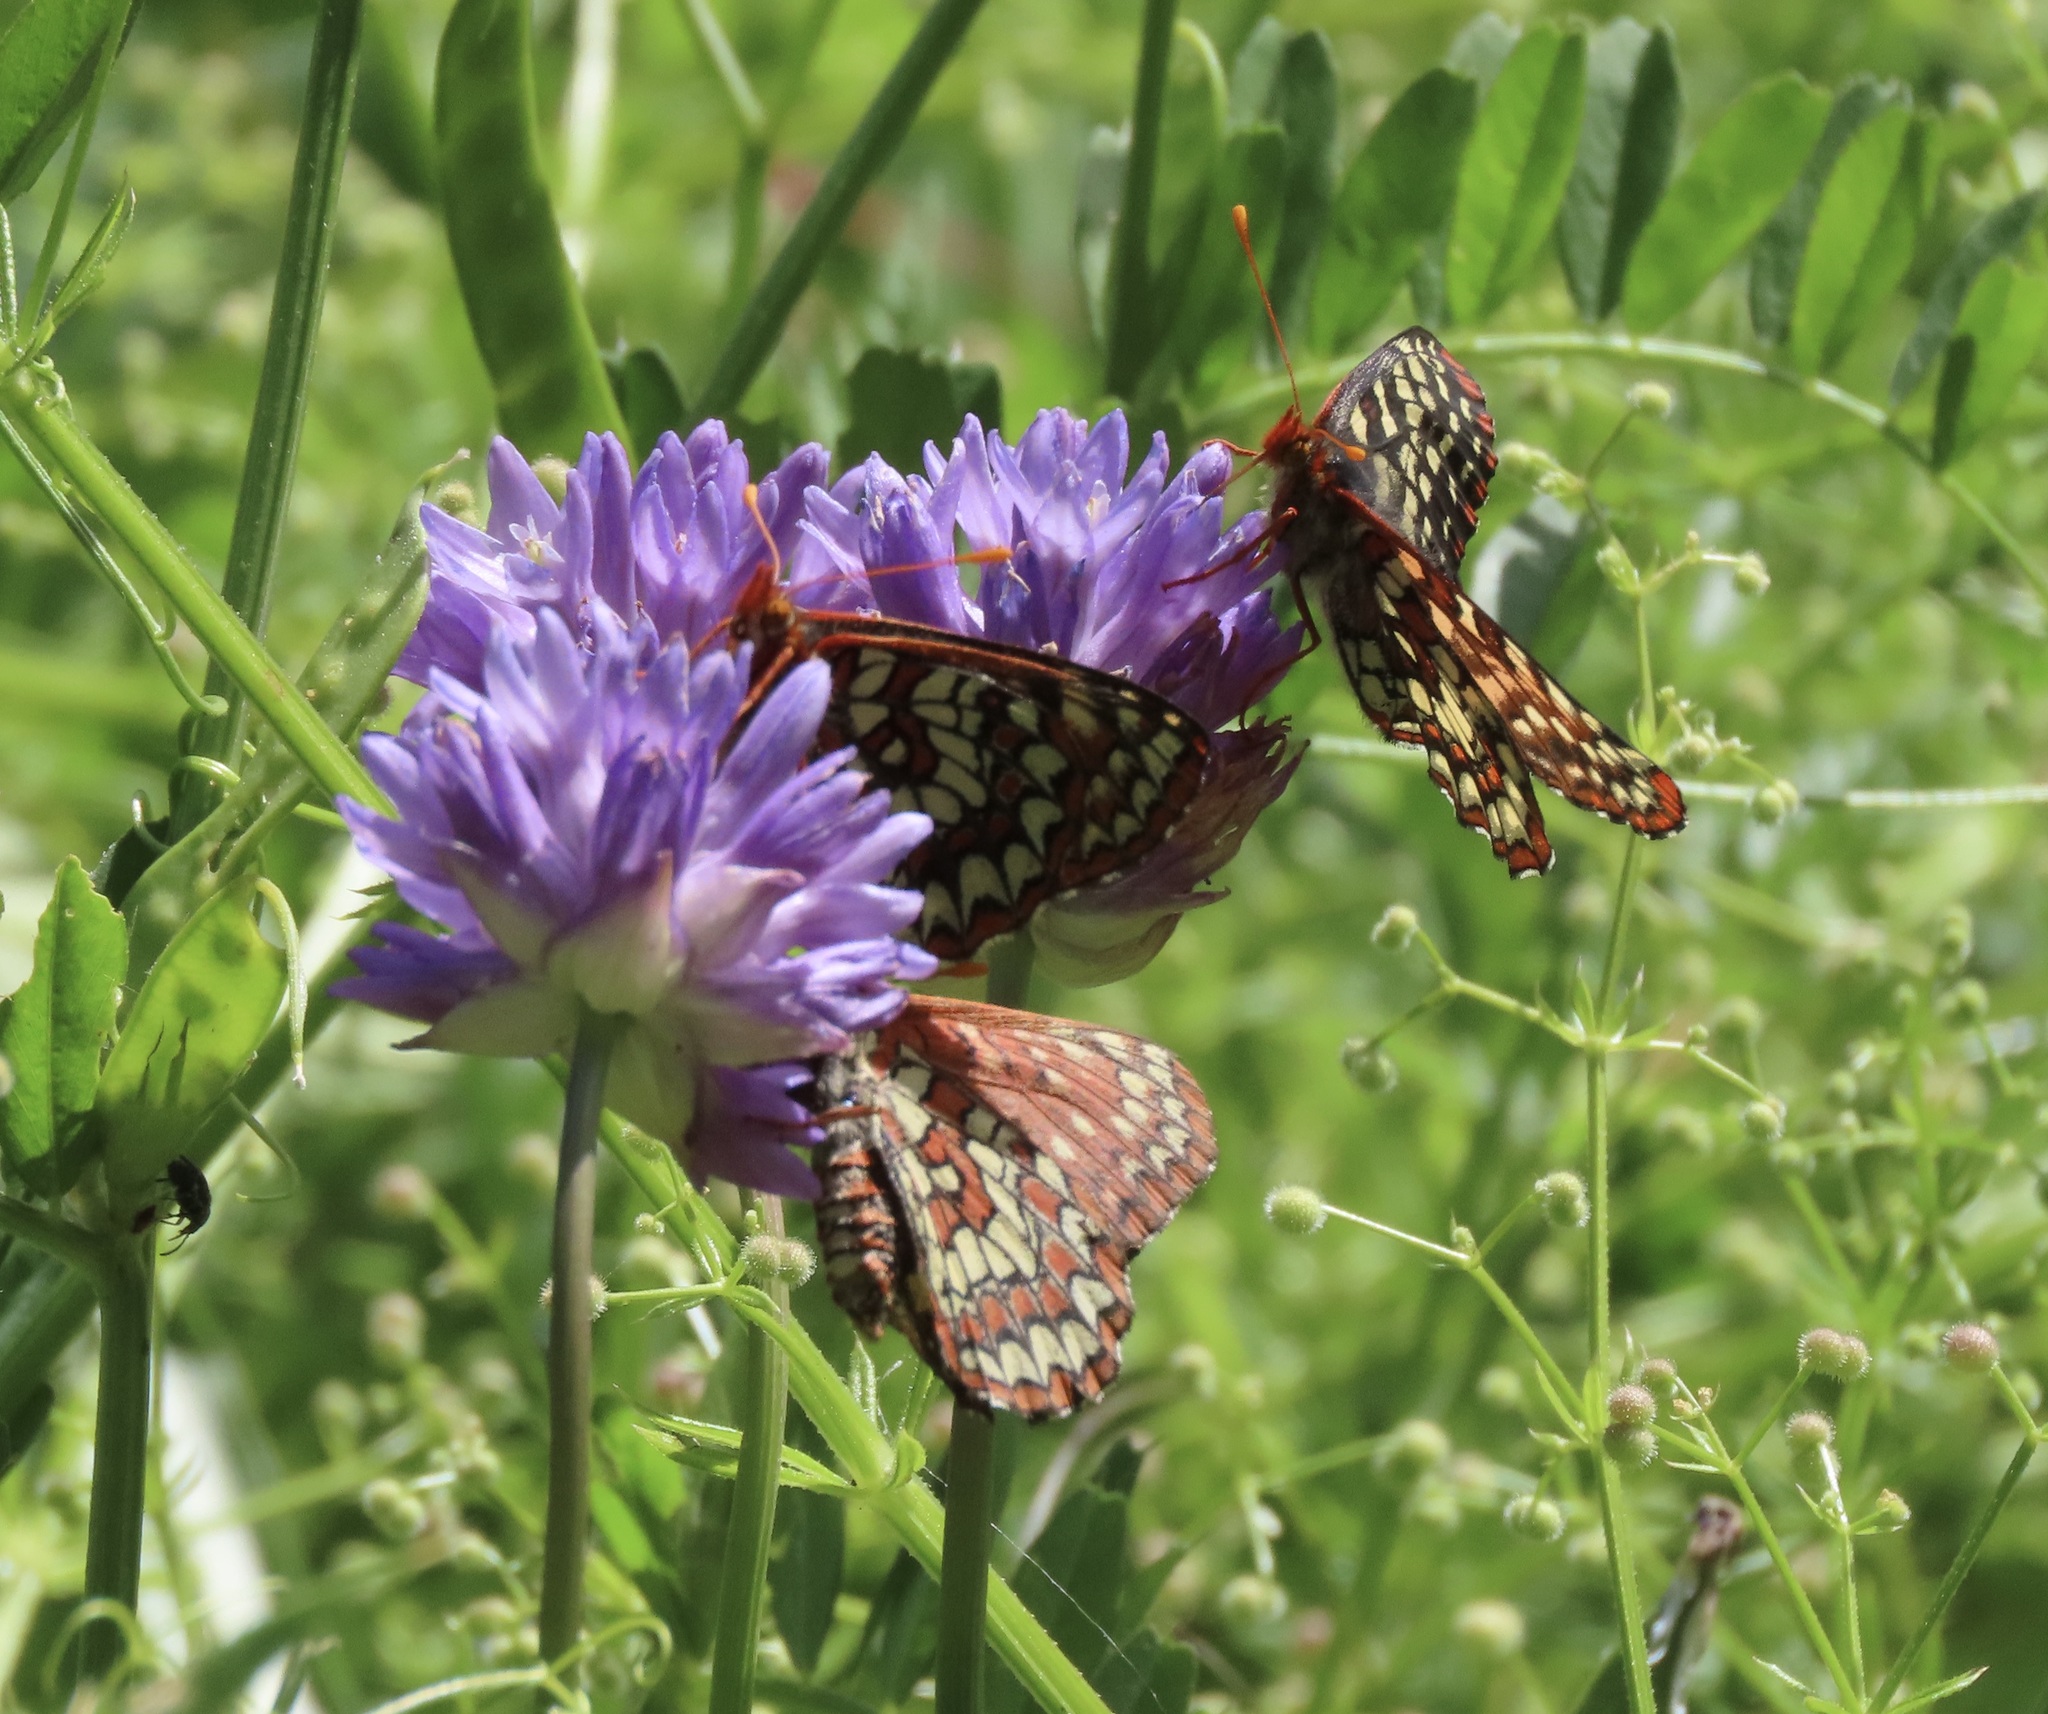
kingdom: Plantae
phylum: Tracheophyta
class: Liliopsida
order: Asparagales
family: Asparagaceae
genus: Dichelostemma
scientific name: Dichelostemma congestum
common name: Fork-tooth ookow
